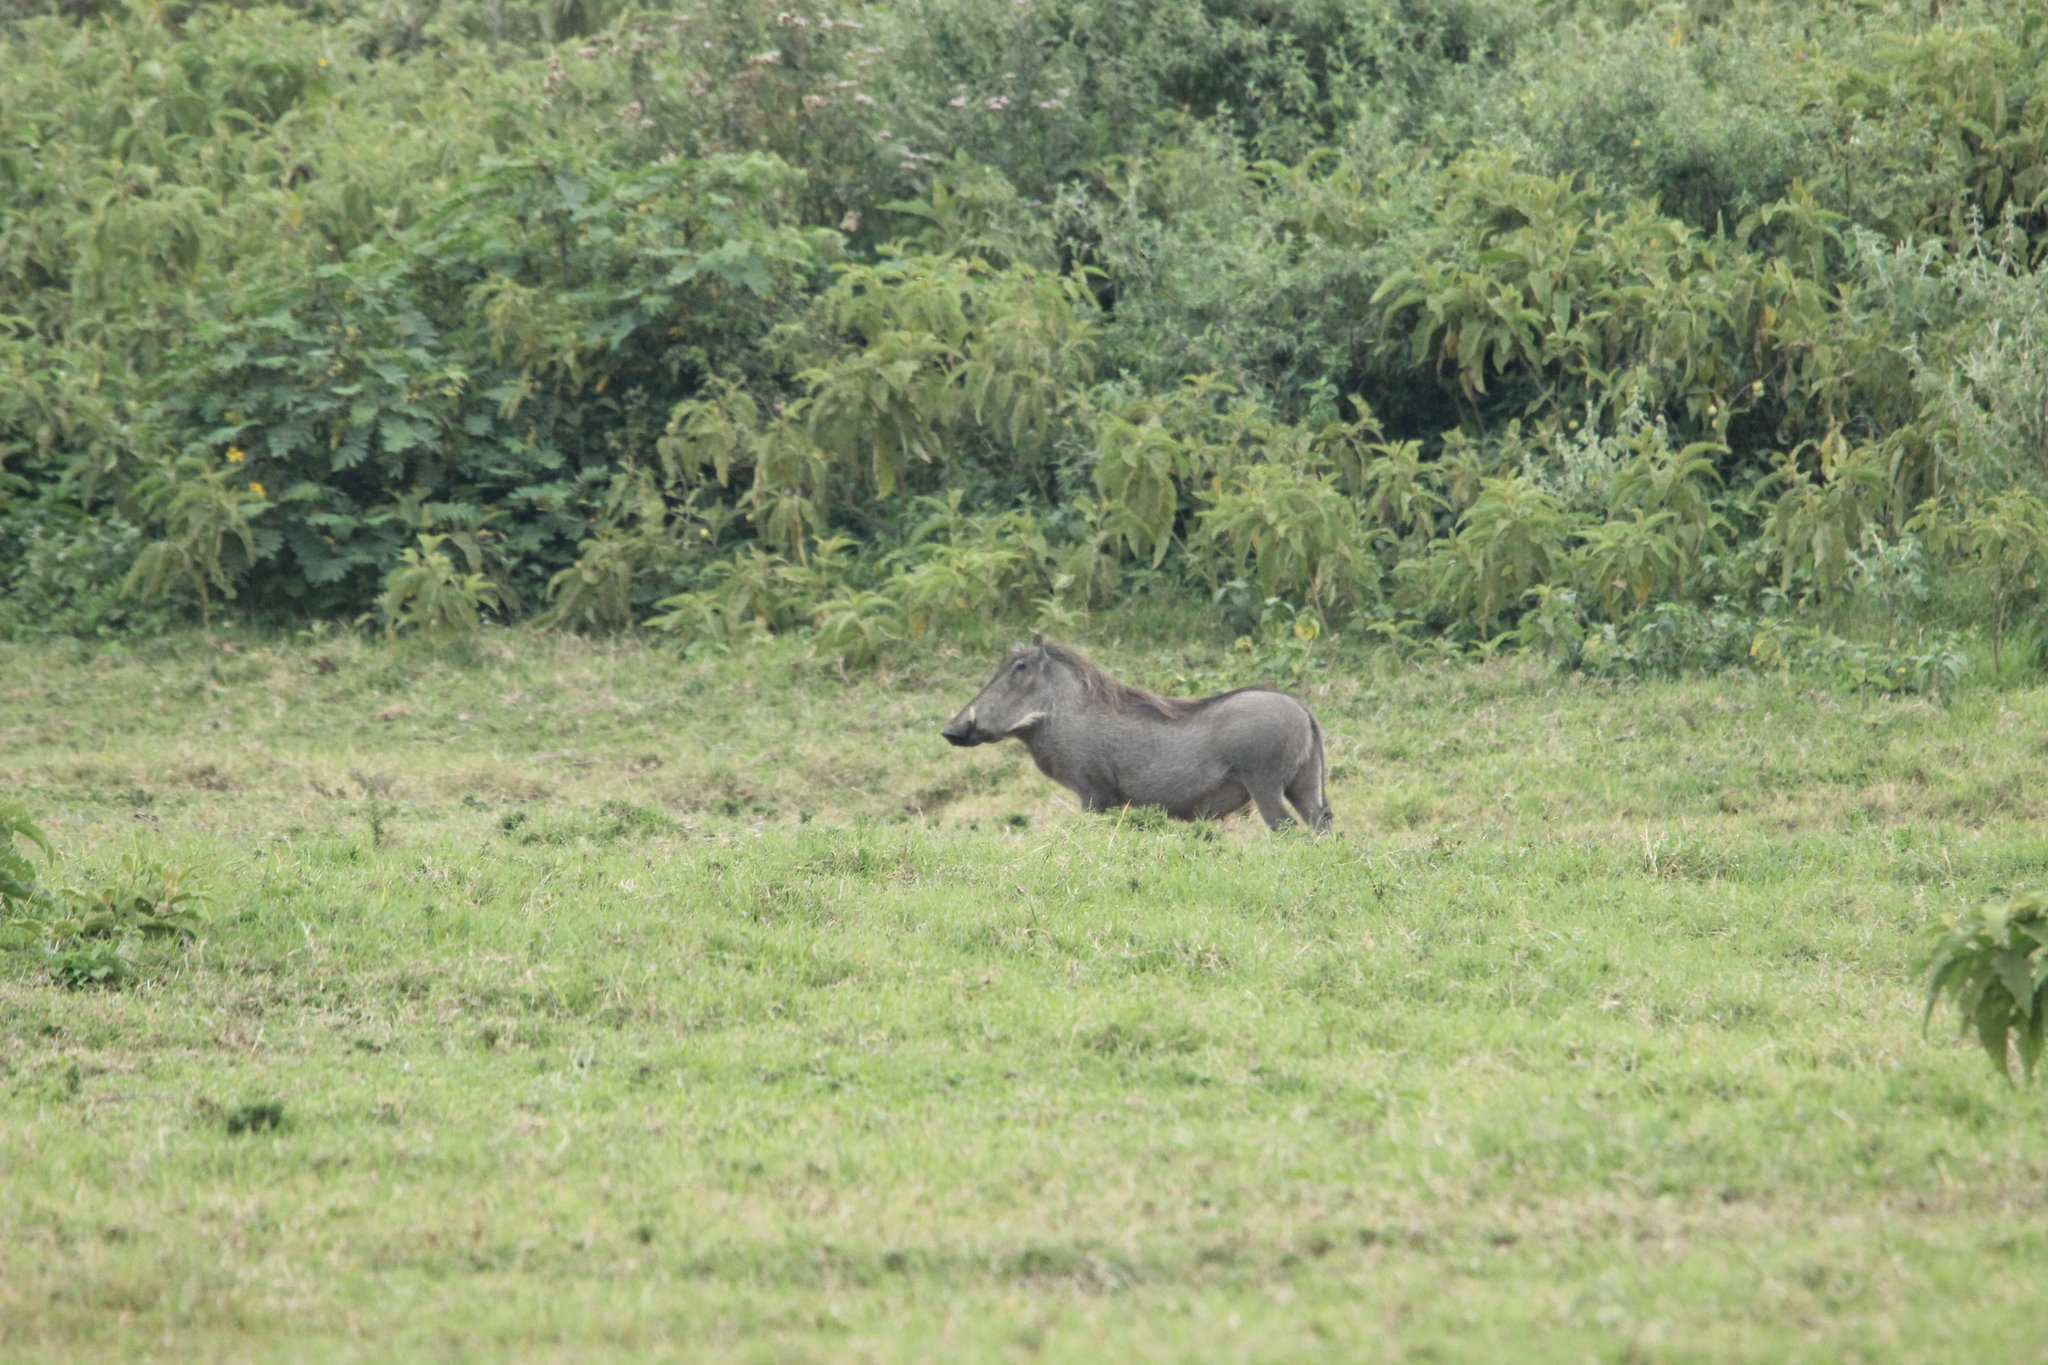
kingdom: Animalia
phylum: Chordata
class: Mammalia
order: Artiodactyla
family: Suidae
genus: Phacochoerus
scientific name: Phacochoerus africanus
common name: Common warthog
